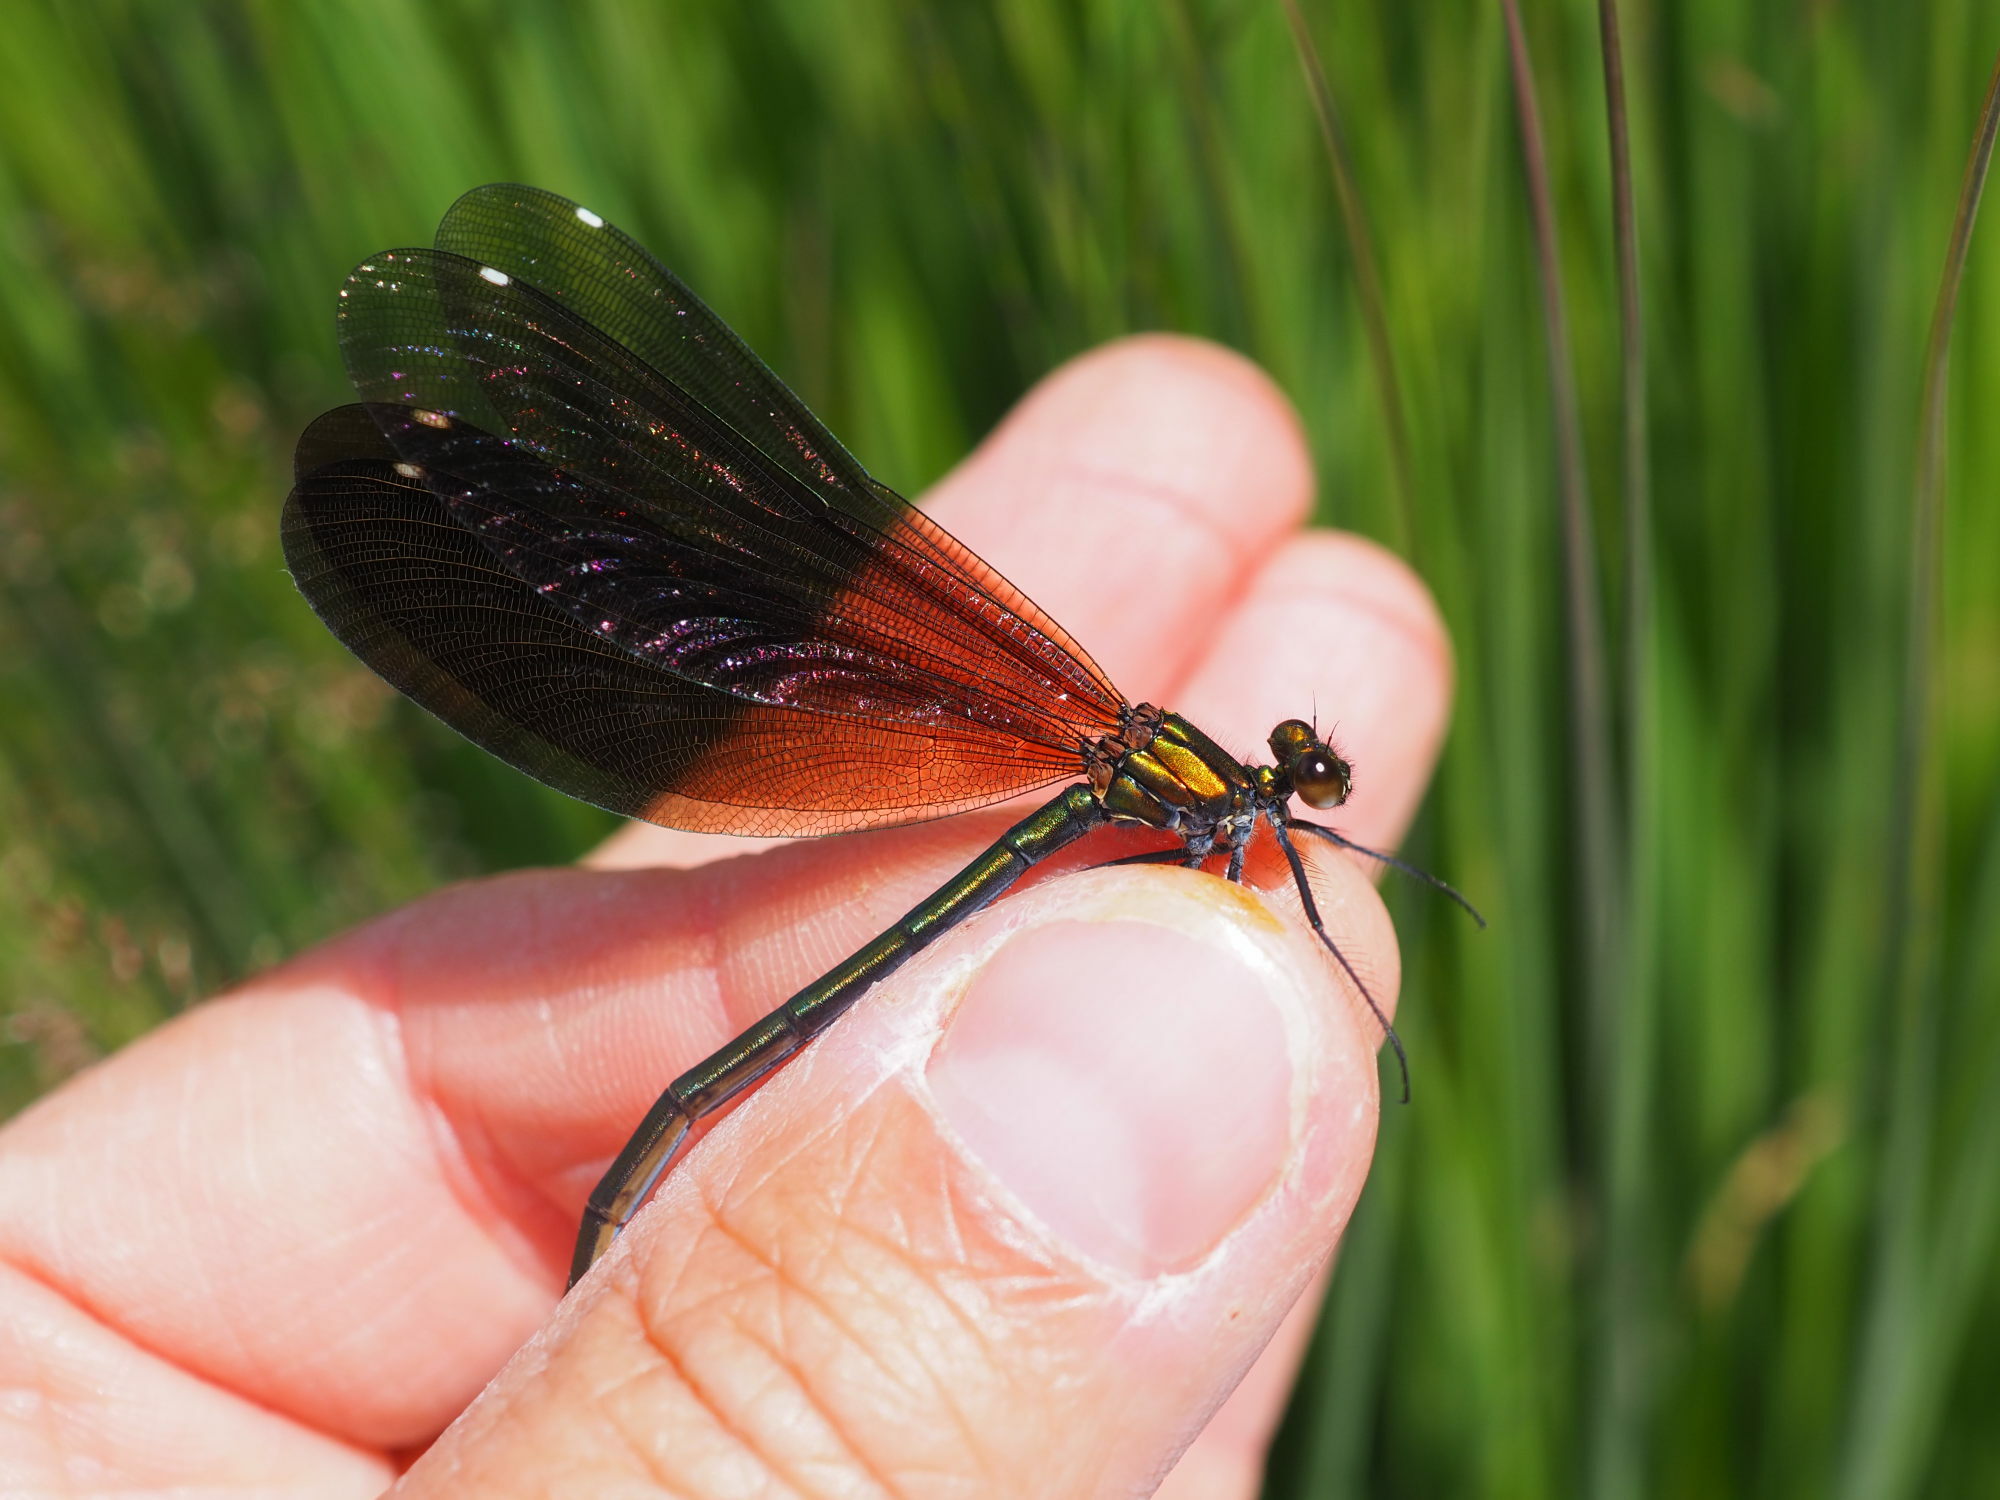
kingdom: Animalia
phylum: Arthropoda
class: Insecta
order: Odonata
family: Calopterygidae
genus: Calopteryx
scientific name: Calopteryx virgo
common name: Beautiful demoiselle
